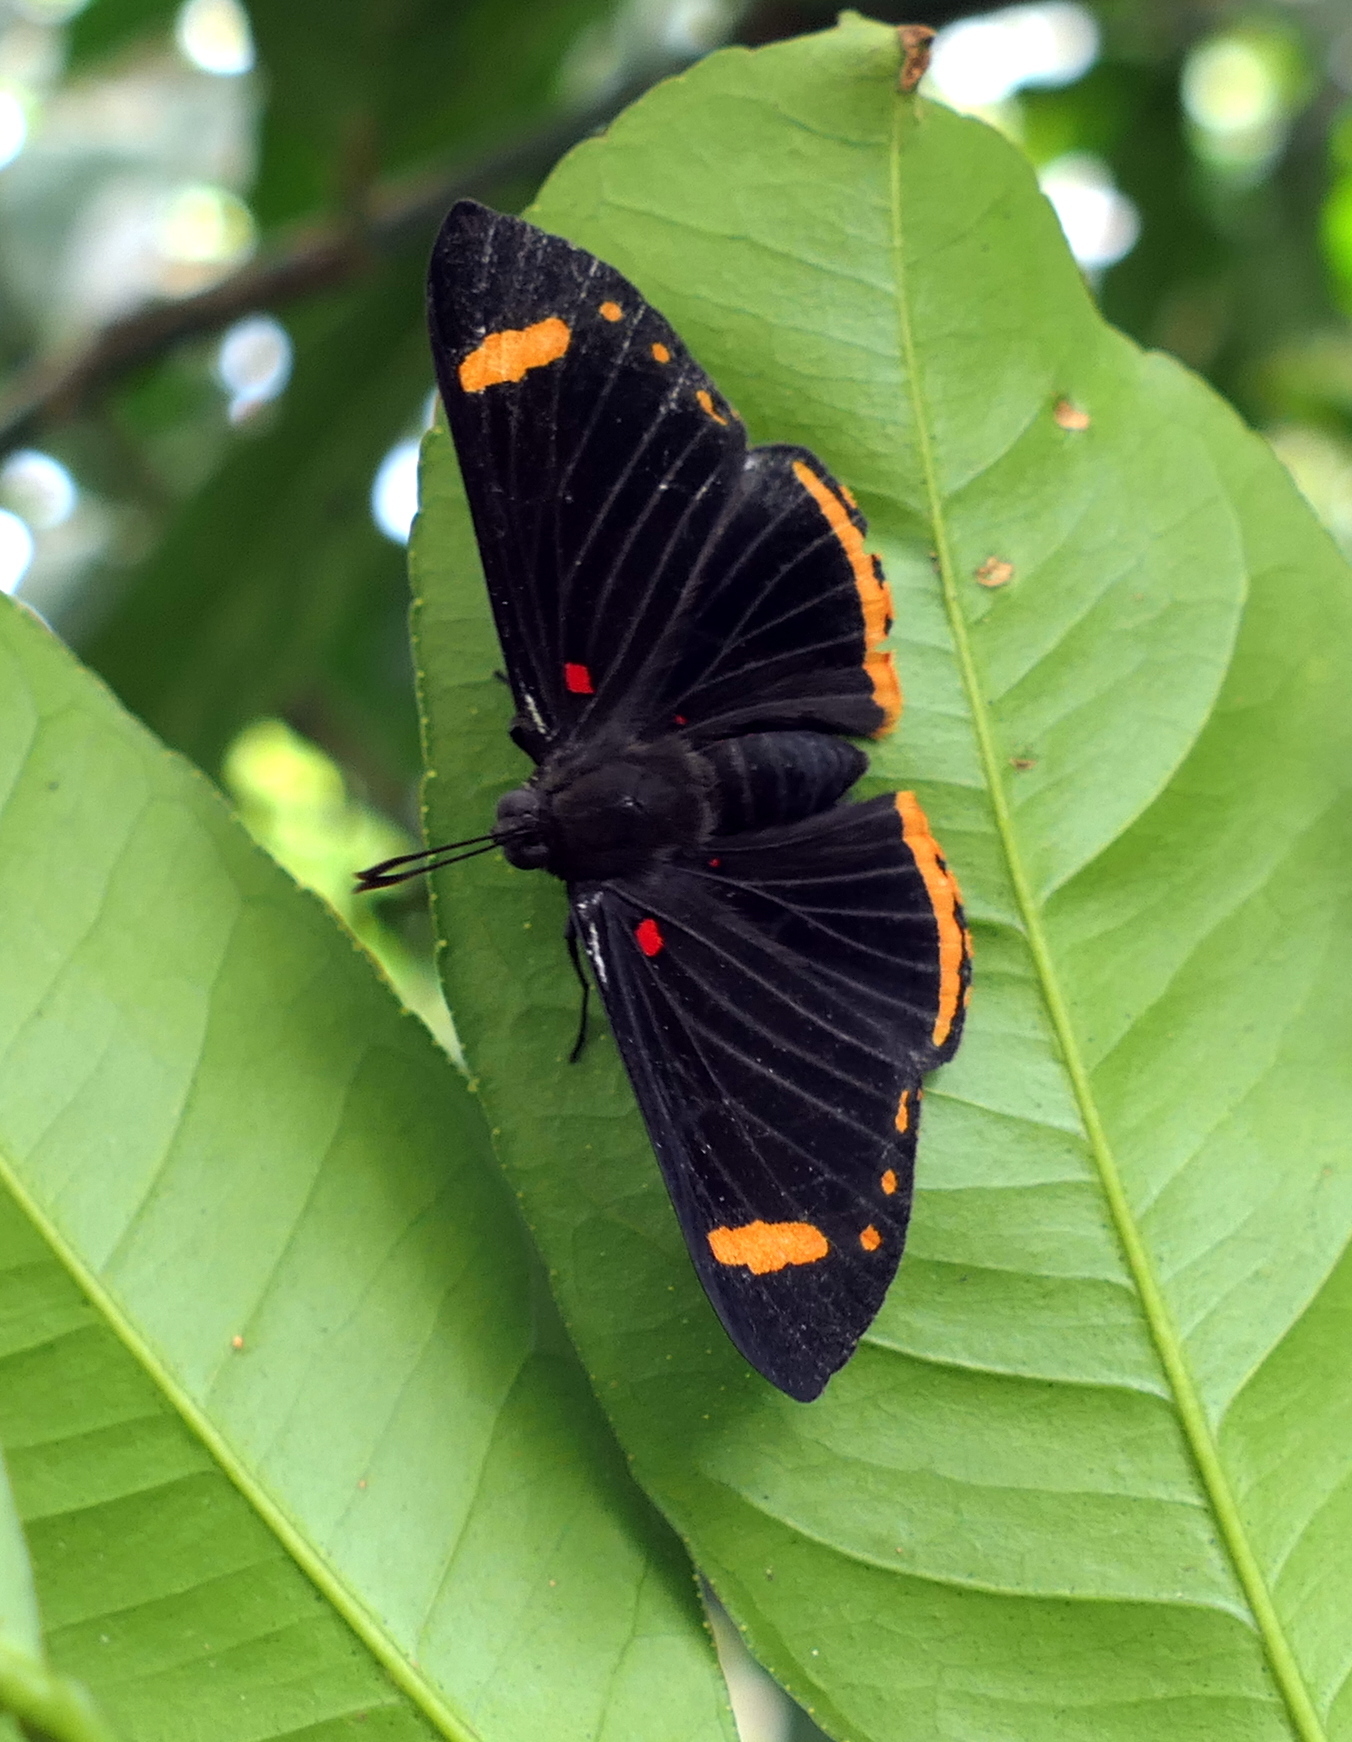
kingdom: Animalia
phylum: Arthropoda
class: Insecta
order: Lepidoptera
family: Lycaenidae
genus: Melanis
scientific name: Melanis xenia
